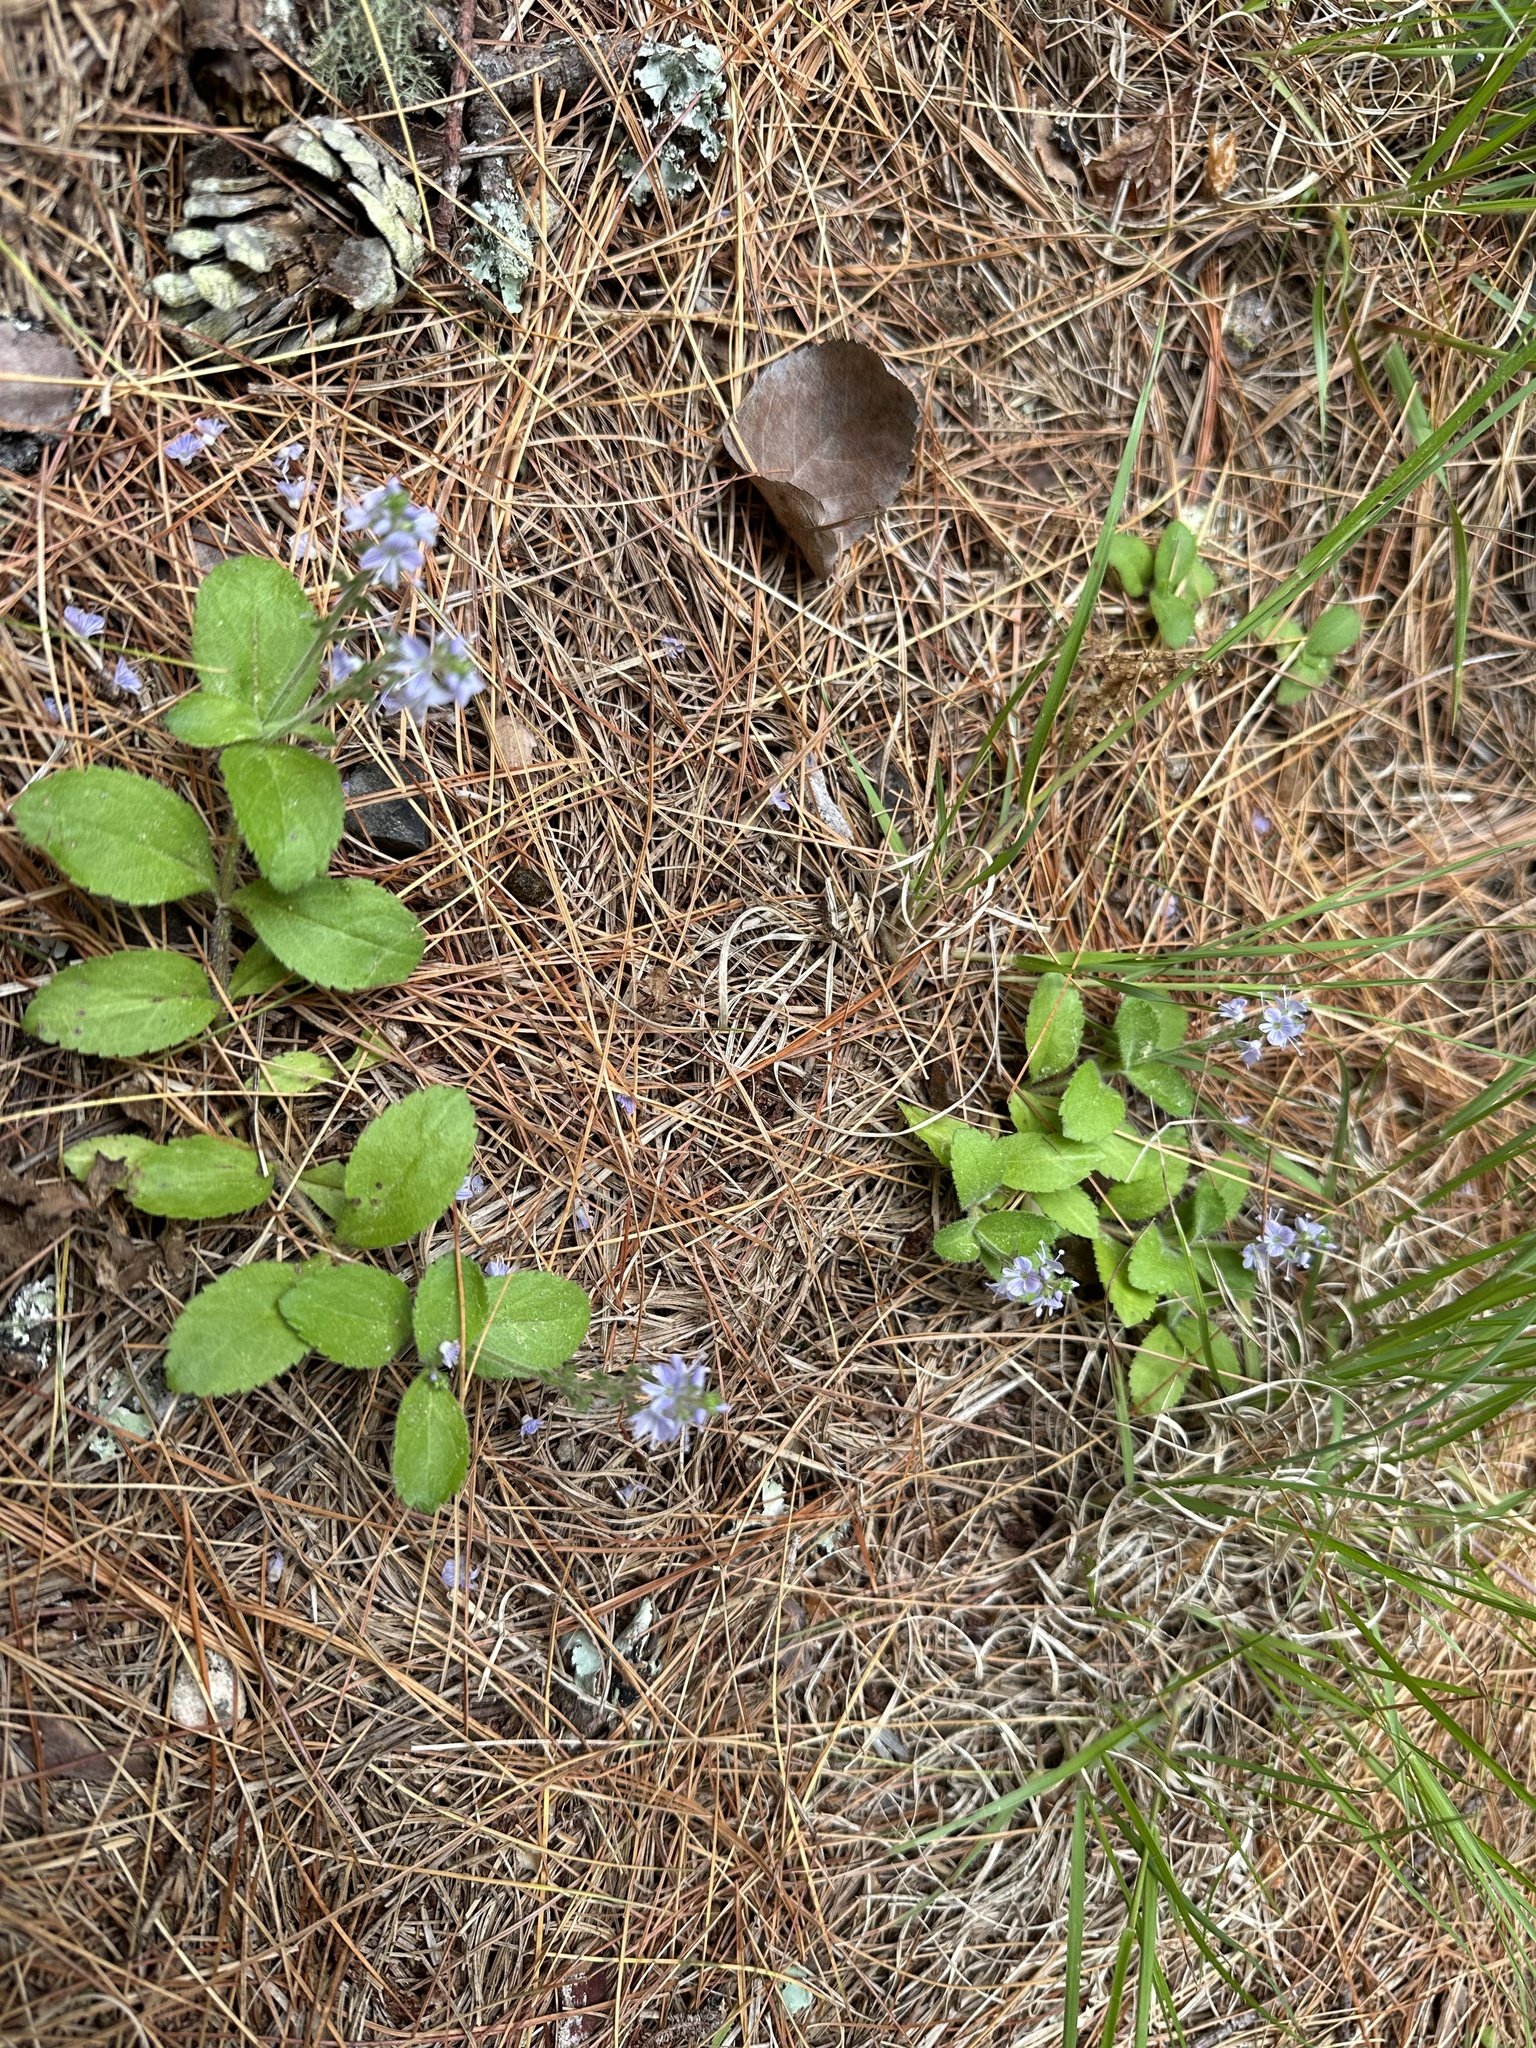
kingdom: Plantae
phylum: Tracheophyta
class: Magnoliopsida
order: Lamiales
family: Plantaginaceae
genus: Veronica
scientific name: Veronica officinalis
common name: Common speedwell
